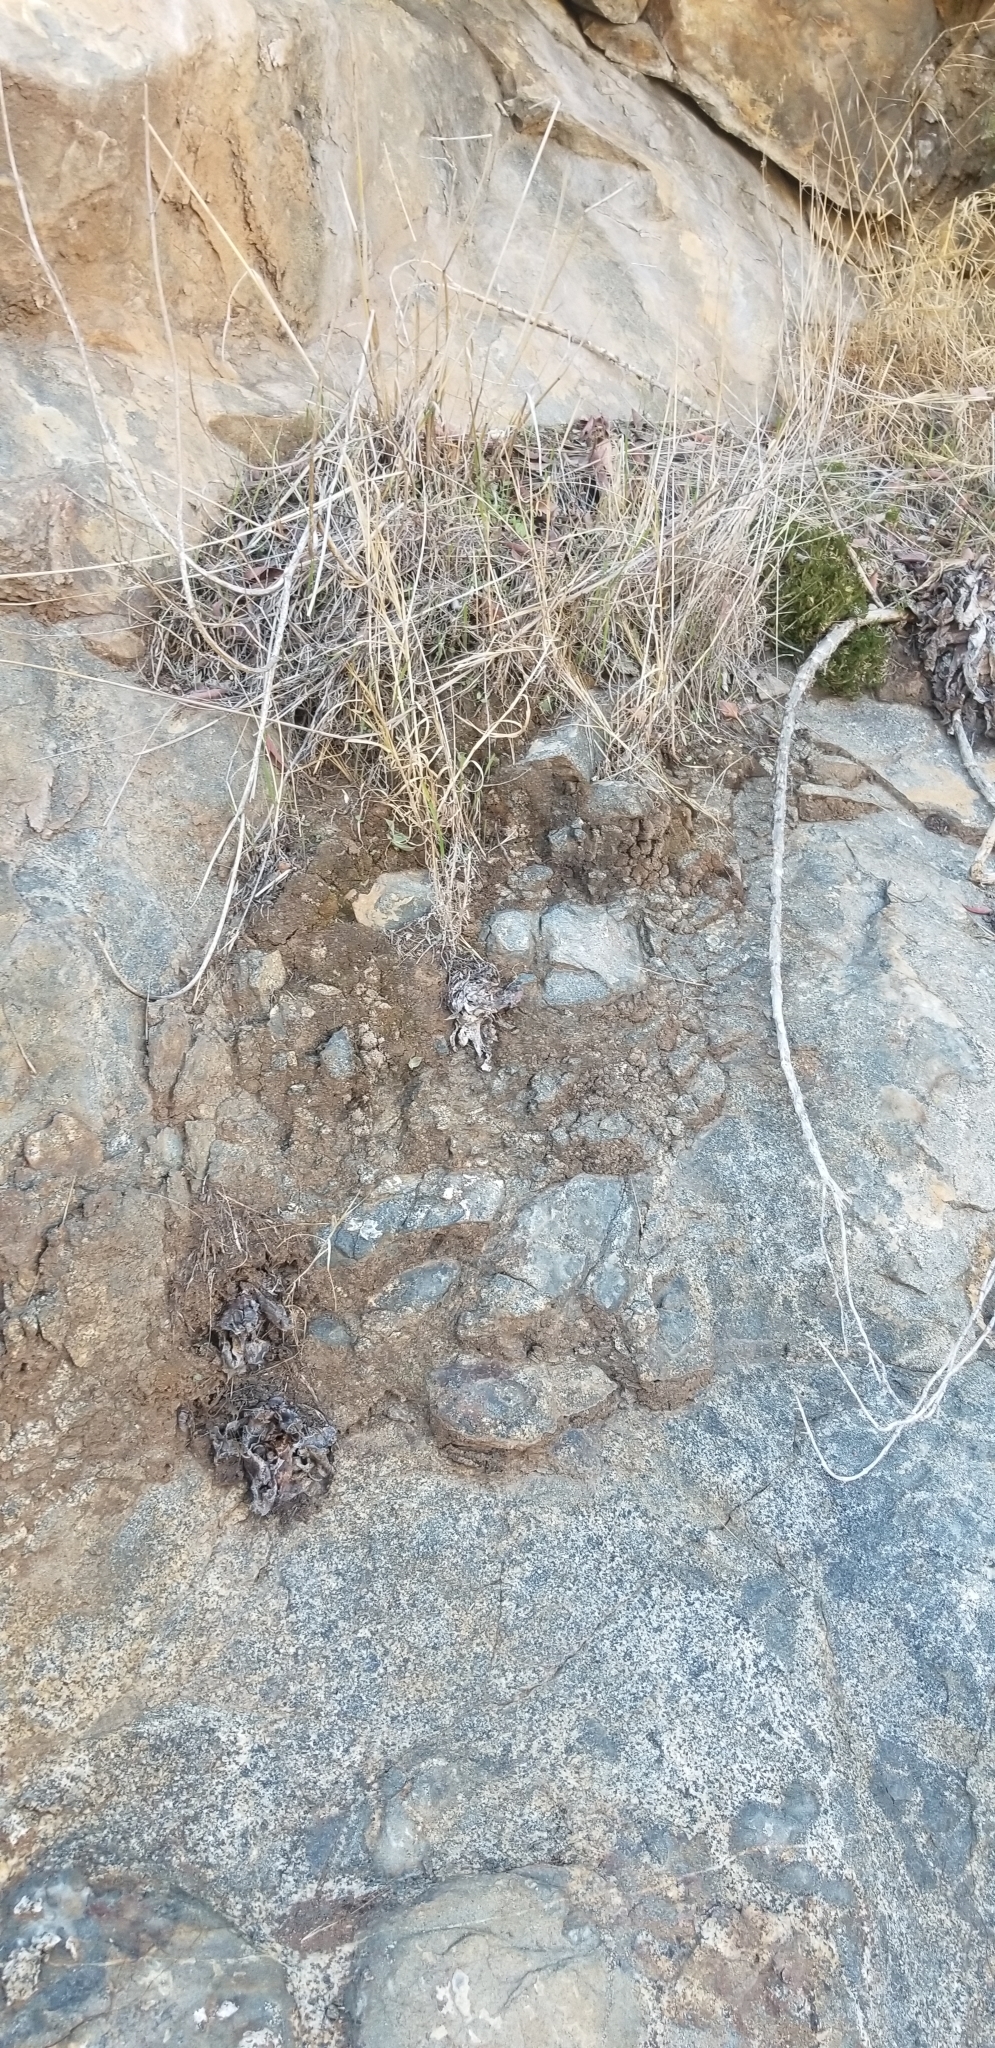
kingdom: Plantae
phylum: Tracheophyta
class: Magnoliopsida
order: Saxifragales
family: Crassulaceae
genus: Dudleya
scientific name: Dudleya pulverulenta
